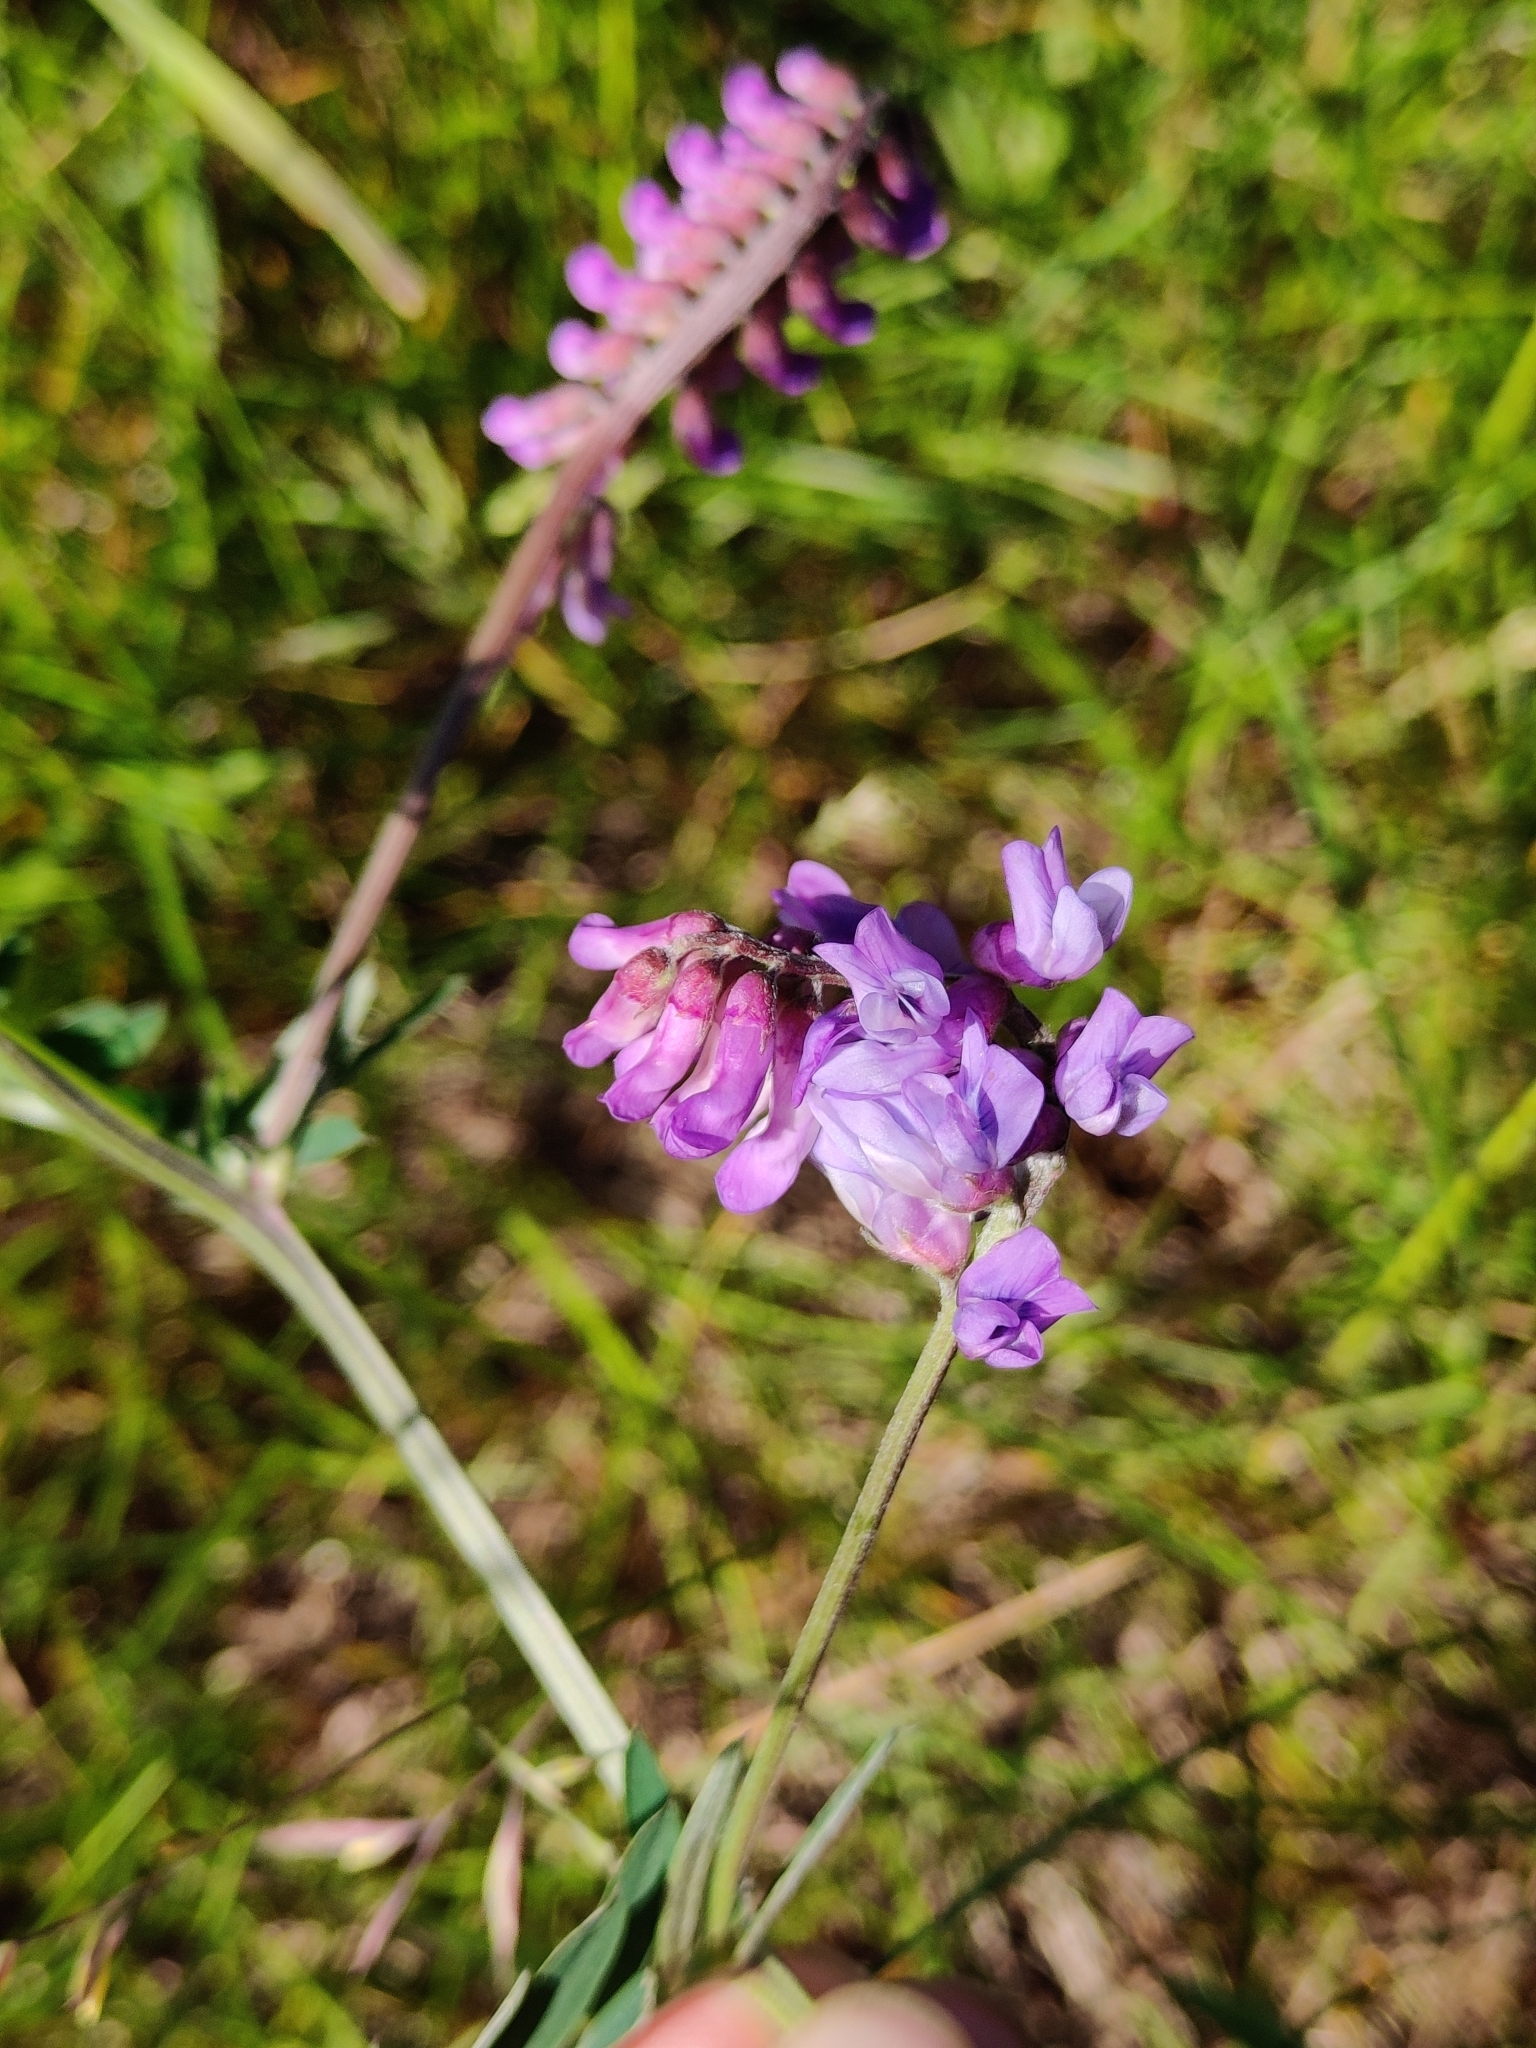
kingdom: Plantae
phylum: Tracheophyta
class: Magnoliopsida
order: Fabales
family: Fabaceae
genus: Vicia
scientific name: Vicia cracca
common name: Bird vetch
